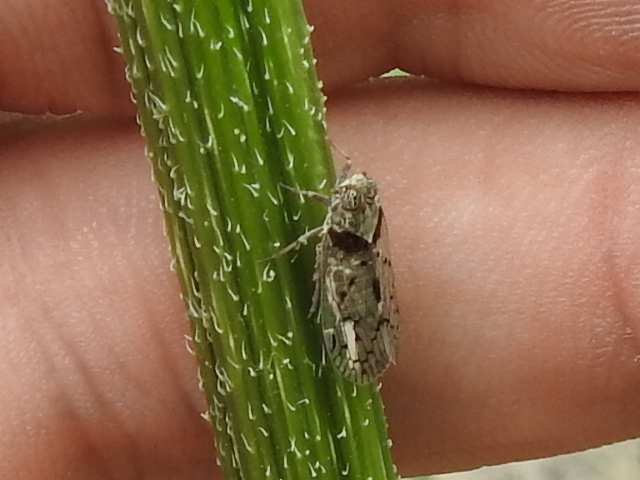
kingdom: Animalia
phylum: Arthropoda
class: Insecta
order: Hemiptera
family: Cixiidae
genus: Melanoliarus
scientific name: Melanoliarus aridus
